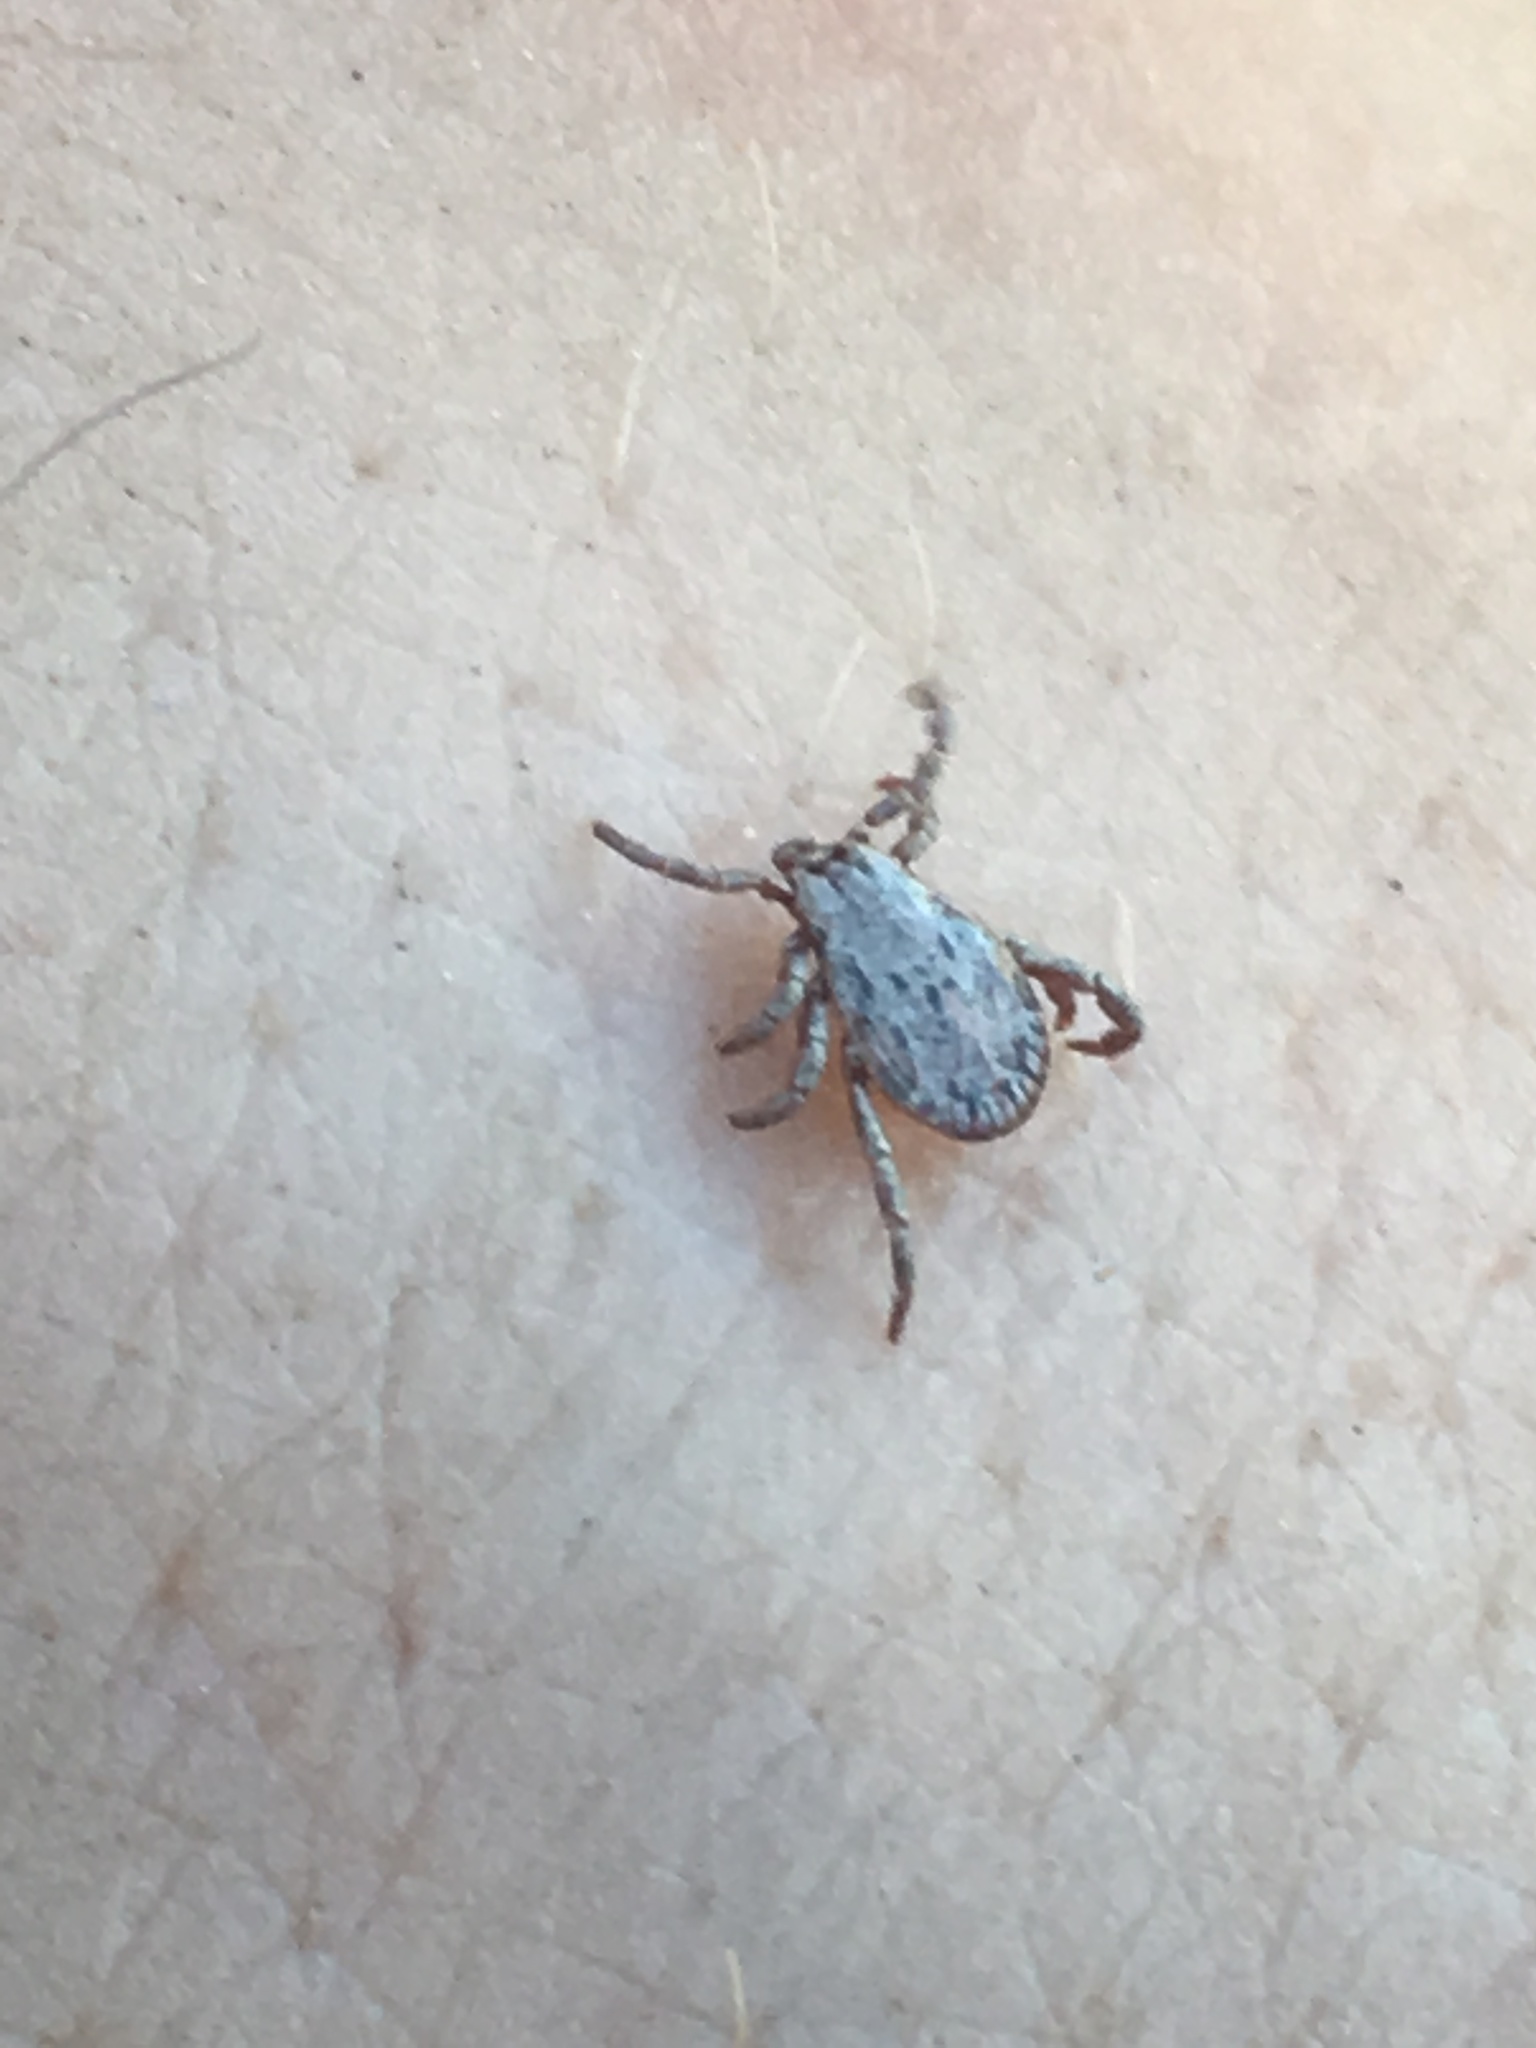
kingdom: Animalia
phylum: Arthropoda
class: Arachnida
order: Ixodida
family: Ixodidae
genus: Dermacentor
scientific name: Dermacentor occidentalis
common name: Net tick
